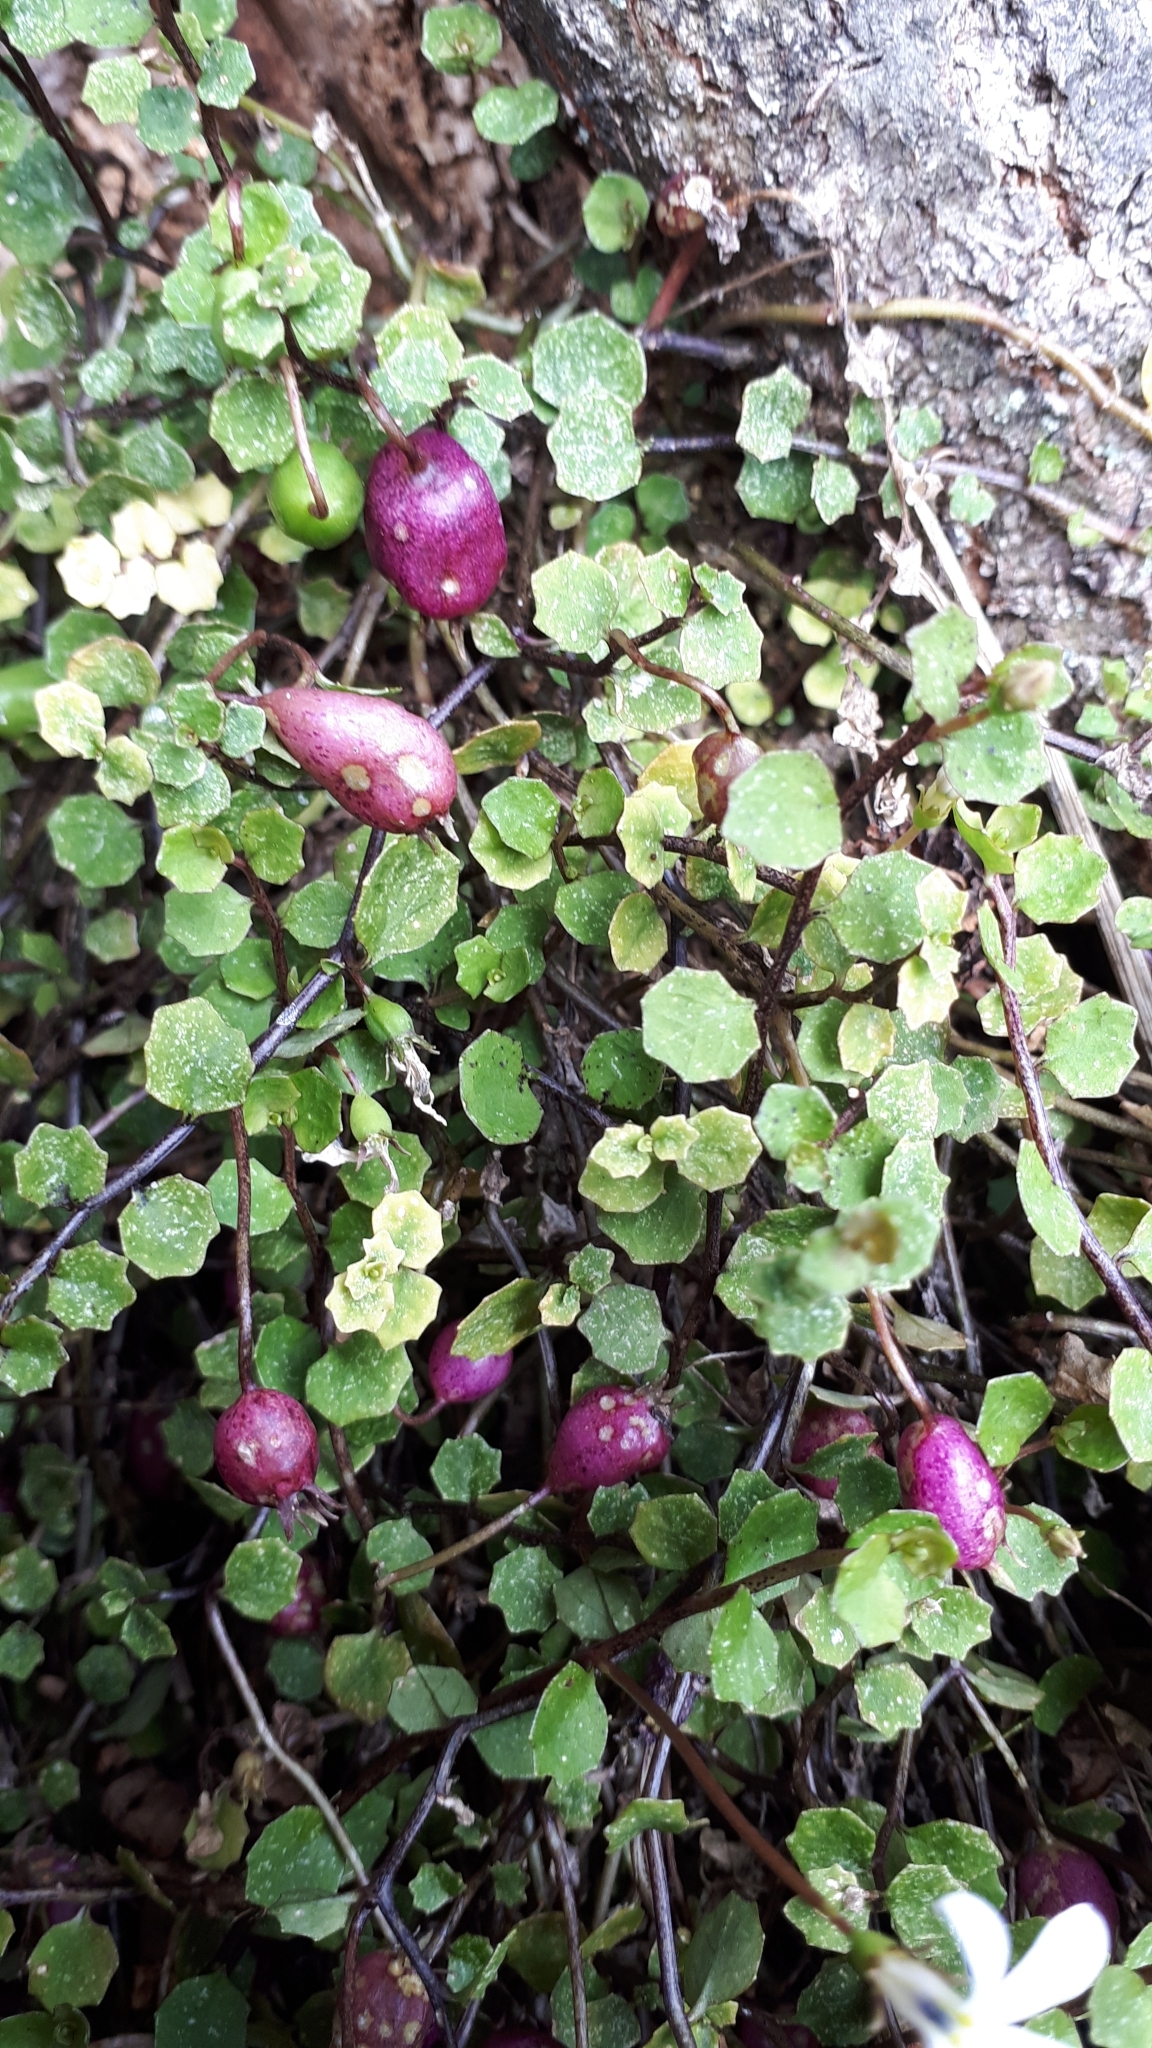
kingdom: Plantae
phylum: Tracheophyta
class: Magnoliopsida
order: Asterales
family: Campanulaceae
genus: Lobelia
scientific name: Lobelia angulata
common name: Lawn lobelia
